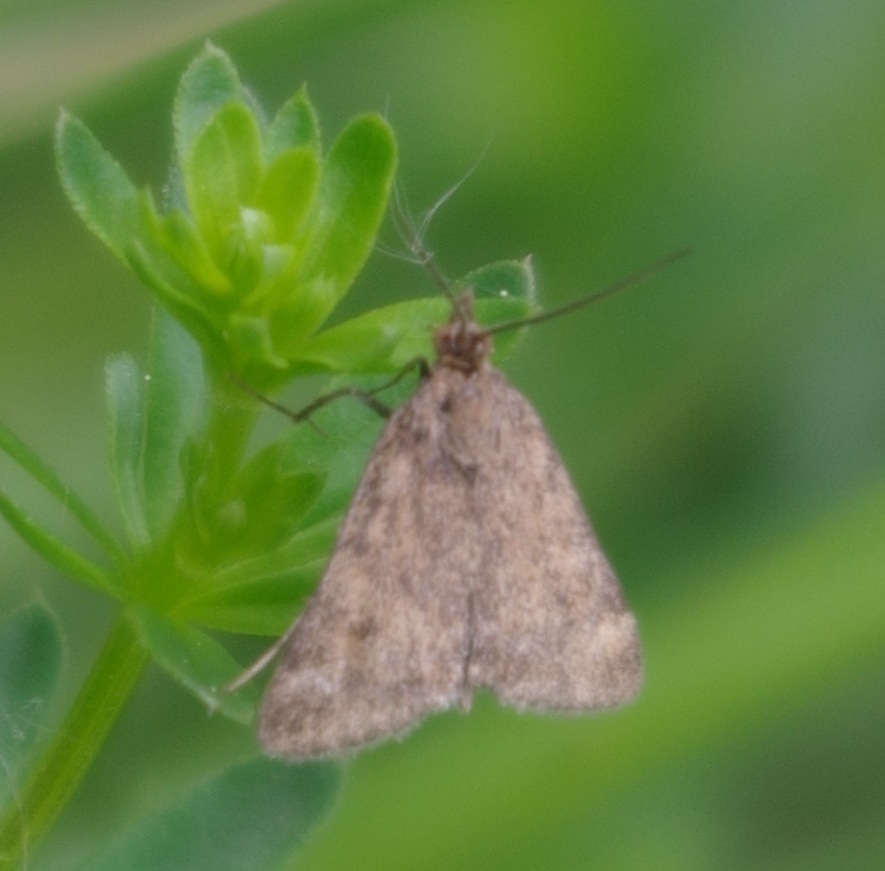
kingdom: Animalia
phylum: Arthropoda
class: Insecta
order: Lepidoptera
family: Crambidae
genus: Pyrausta
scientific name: Pyrausta despicata
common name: Straw-barred pearl
